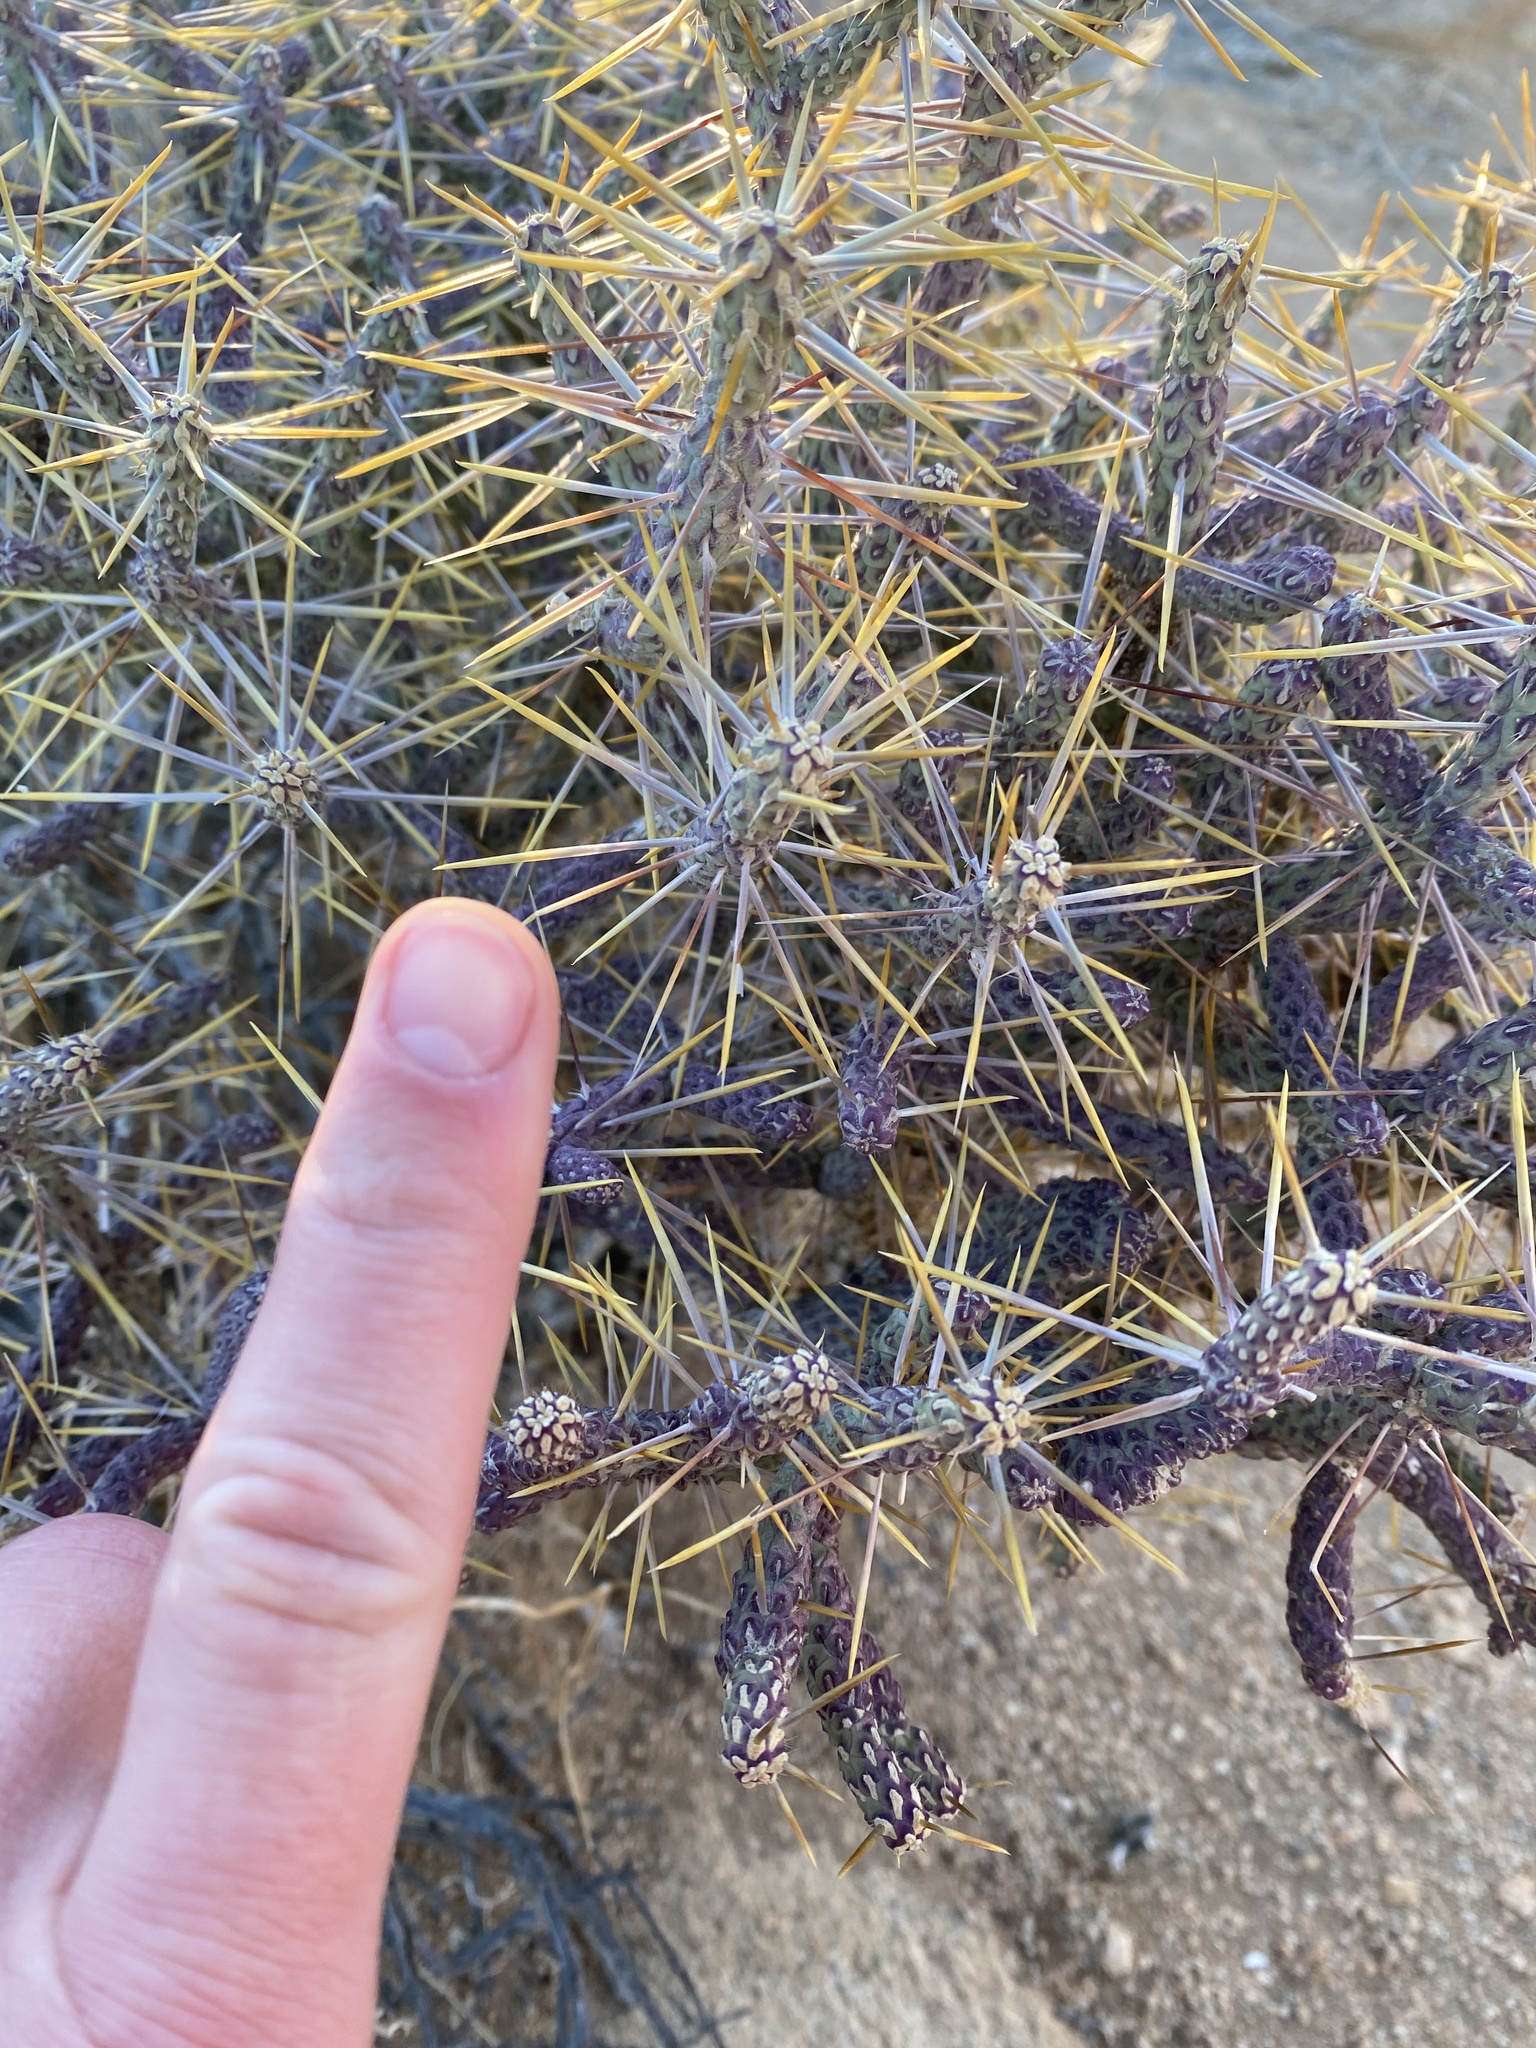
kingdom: Plantae
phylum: Tracheophyta
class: Magnoliopsida
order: Caryophyllales
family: Cactaceae
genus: Cylindropuntia
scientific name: Cylindropuntia ramosissima
